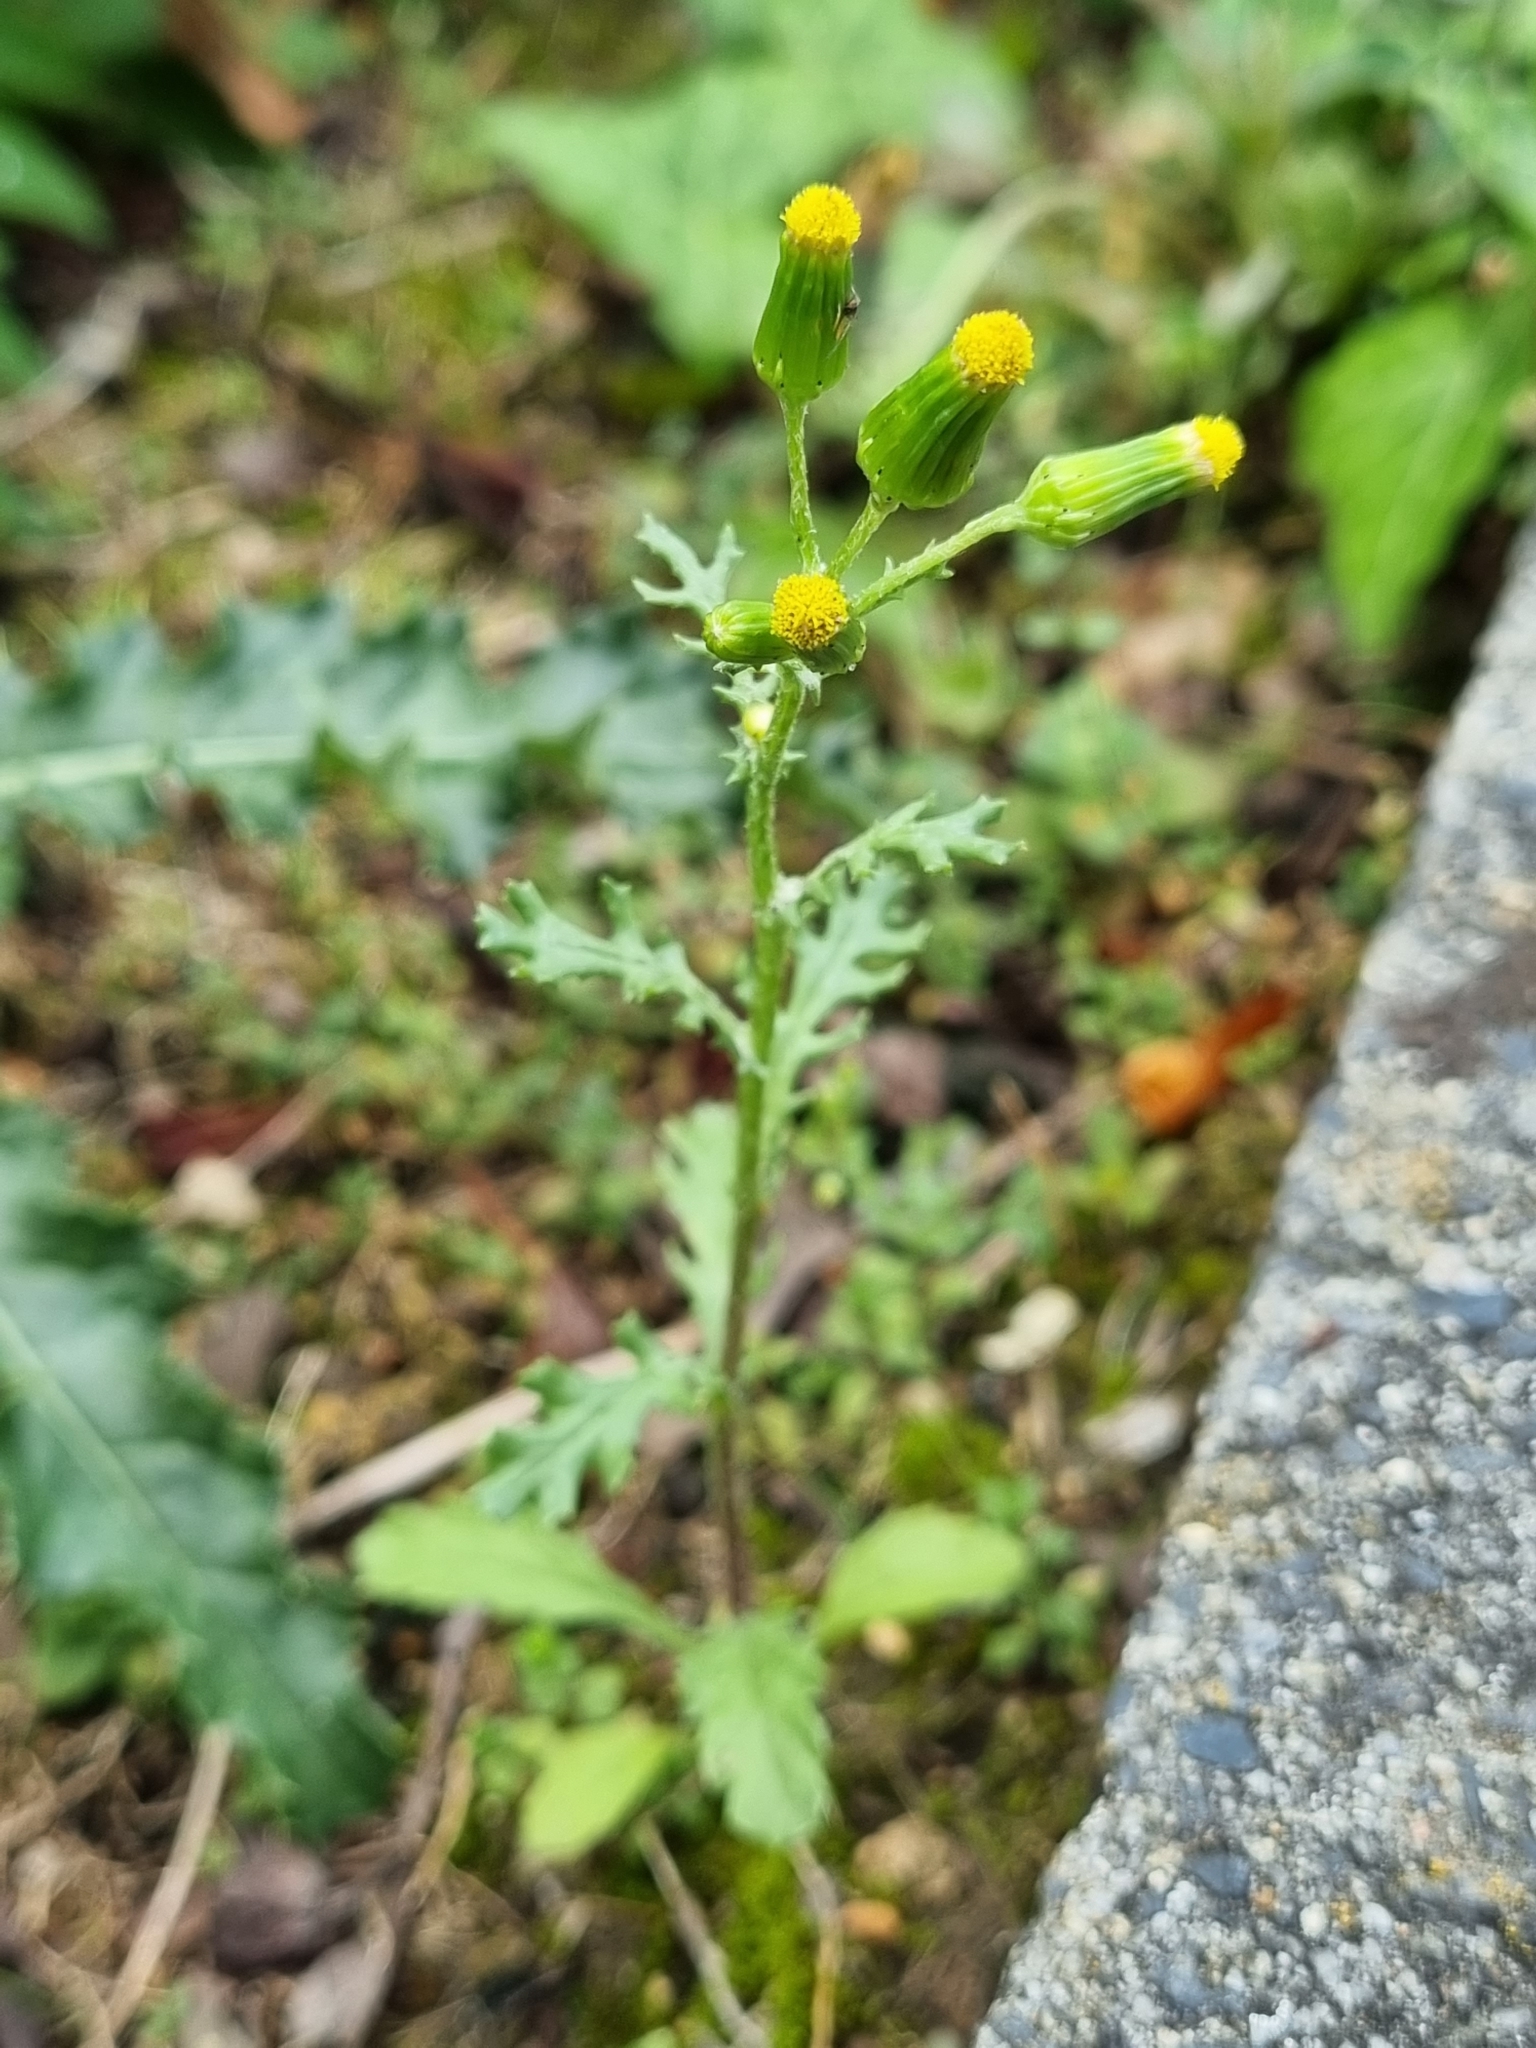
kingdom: Plantae
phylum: Tracheophyta
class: Magnoliopsida
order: Asterales
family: Asteraceae
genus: Senecio
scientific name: Senecio vulgaris
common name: Old-man-in-the-spring
